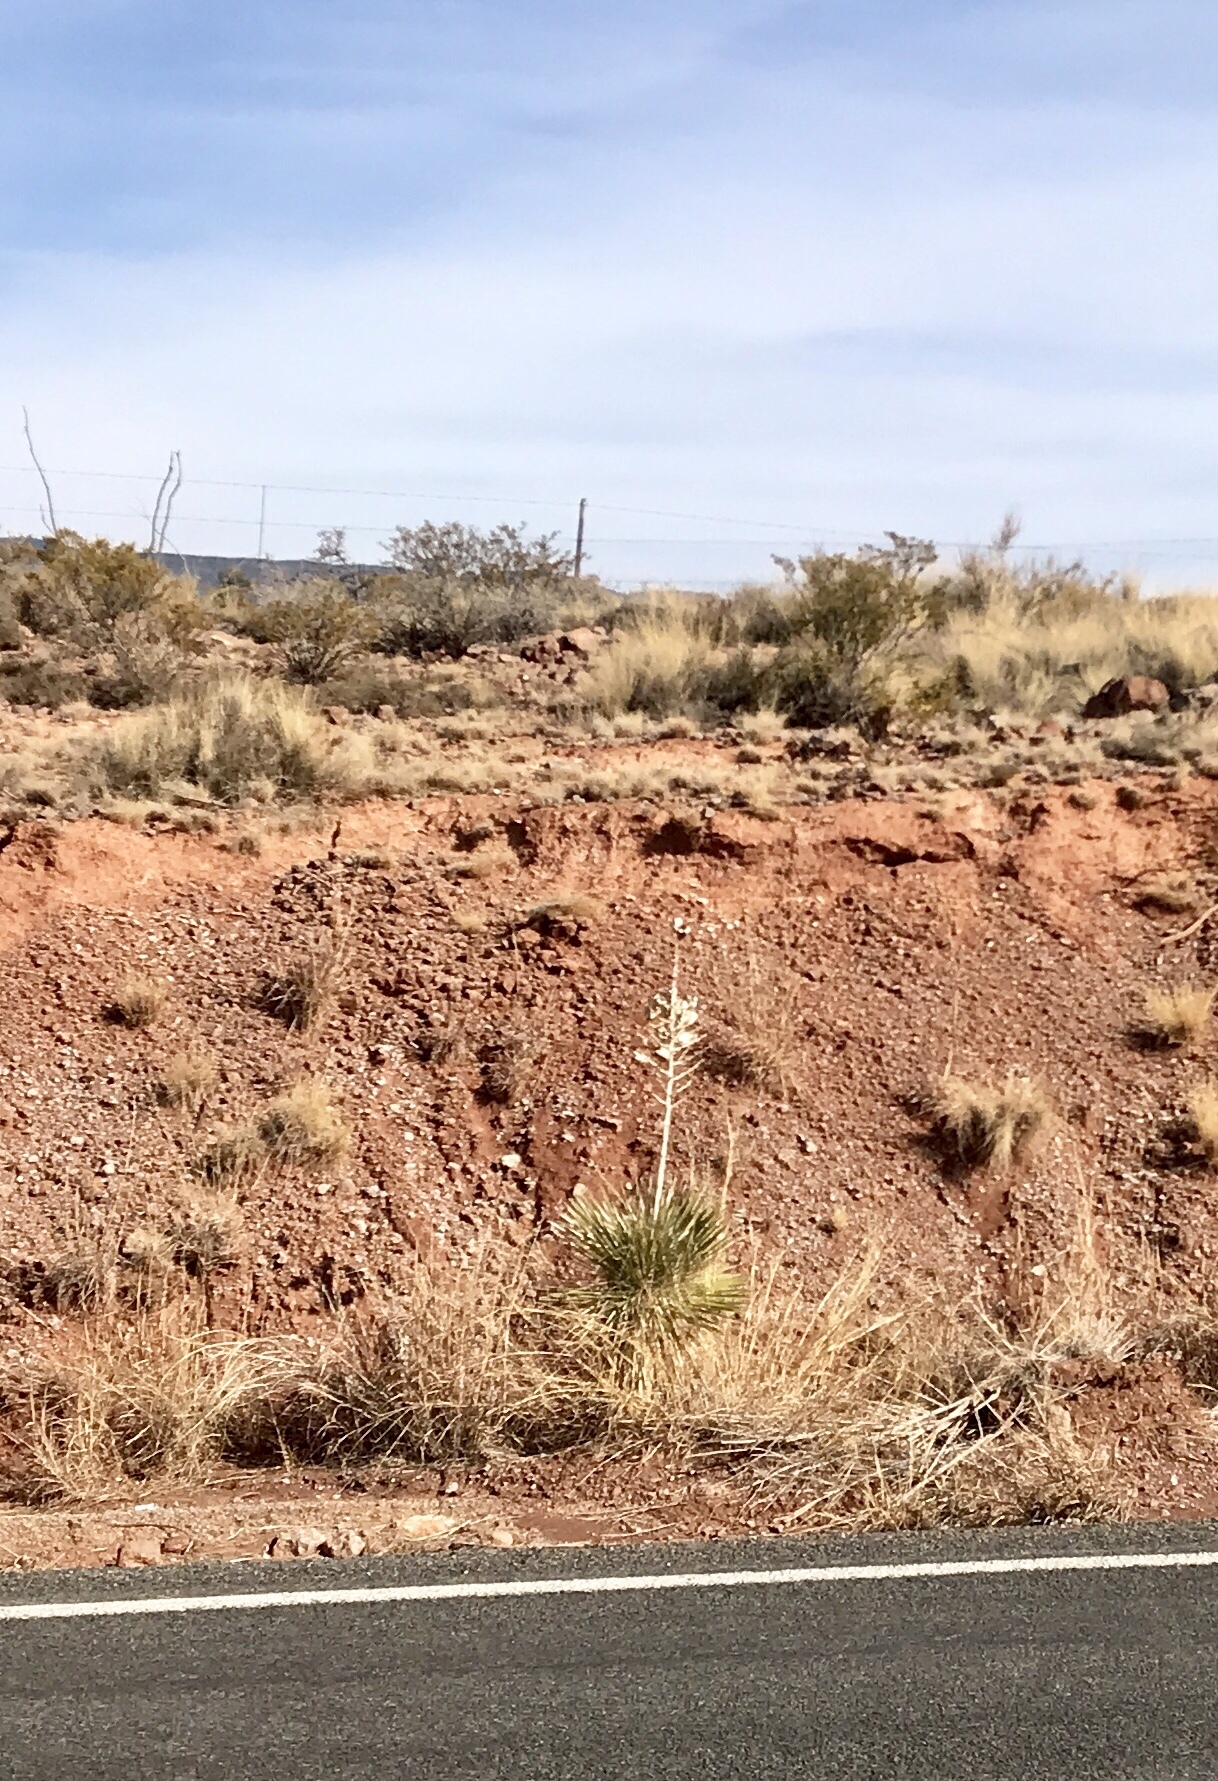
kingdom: Plantae
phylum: Tracheophyta
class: Liliopsida
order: Asparagales
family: Asparagaceae
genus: Yucca
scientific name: Yucca elata
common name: Palmella
